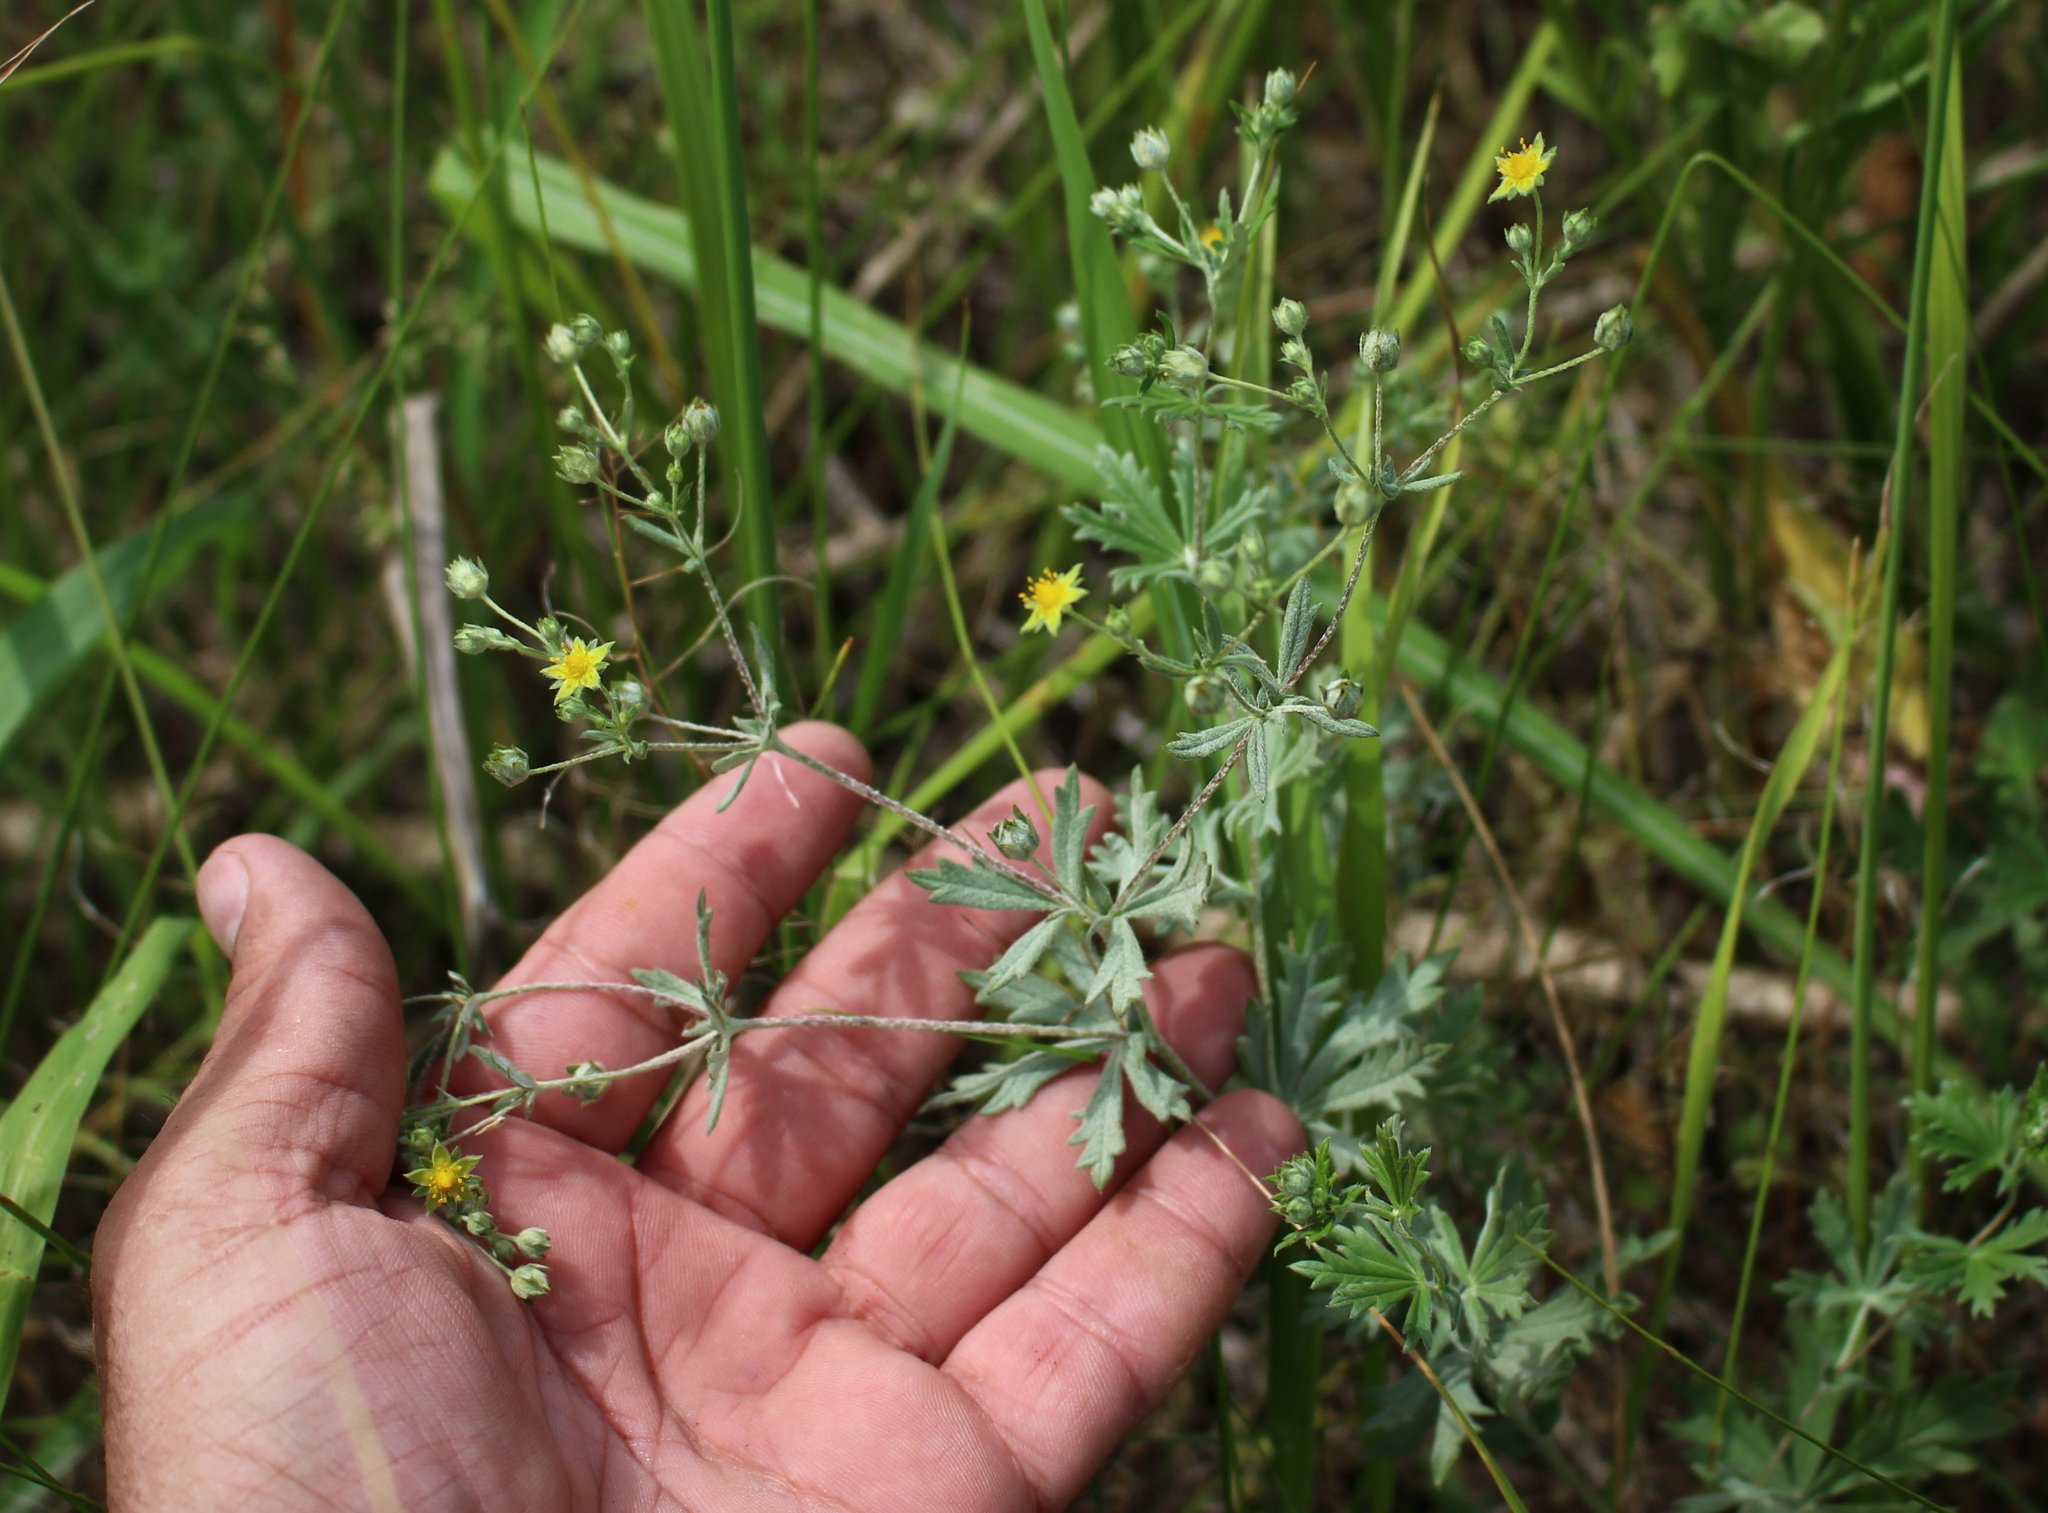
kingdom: Plantae
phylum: Tracheophyta
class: Magnoliopsida
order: Rosales
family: Rosaceae
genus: Potentilla
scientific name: Potentilla argentea
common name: Hoary cinquefoil
